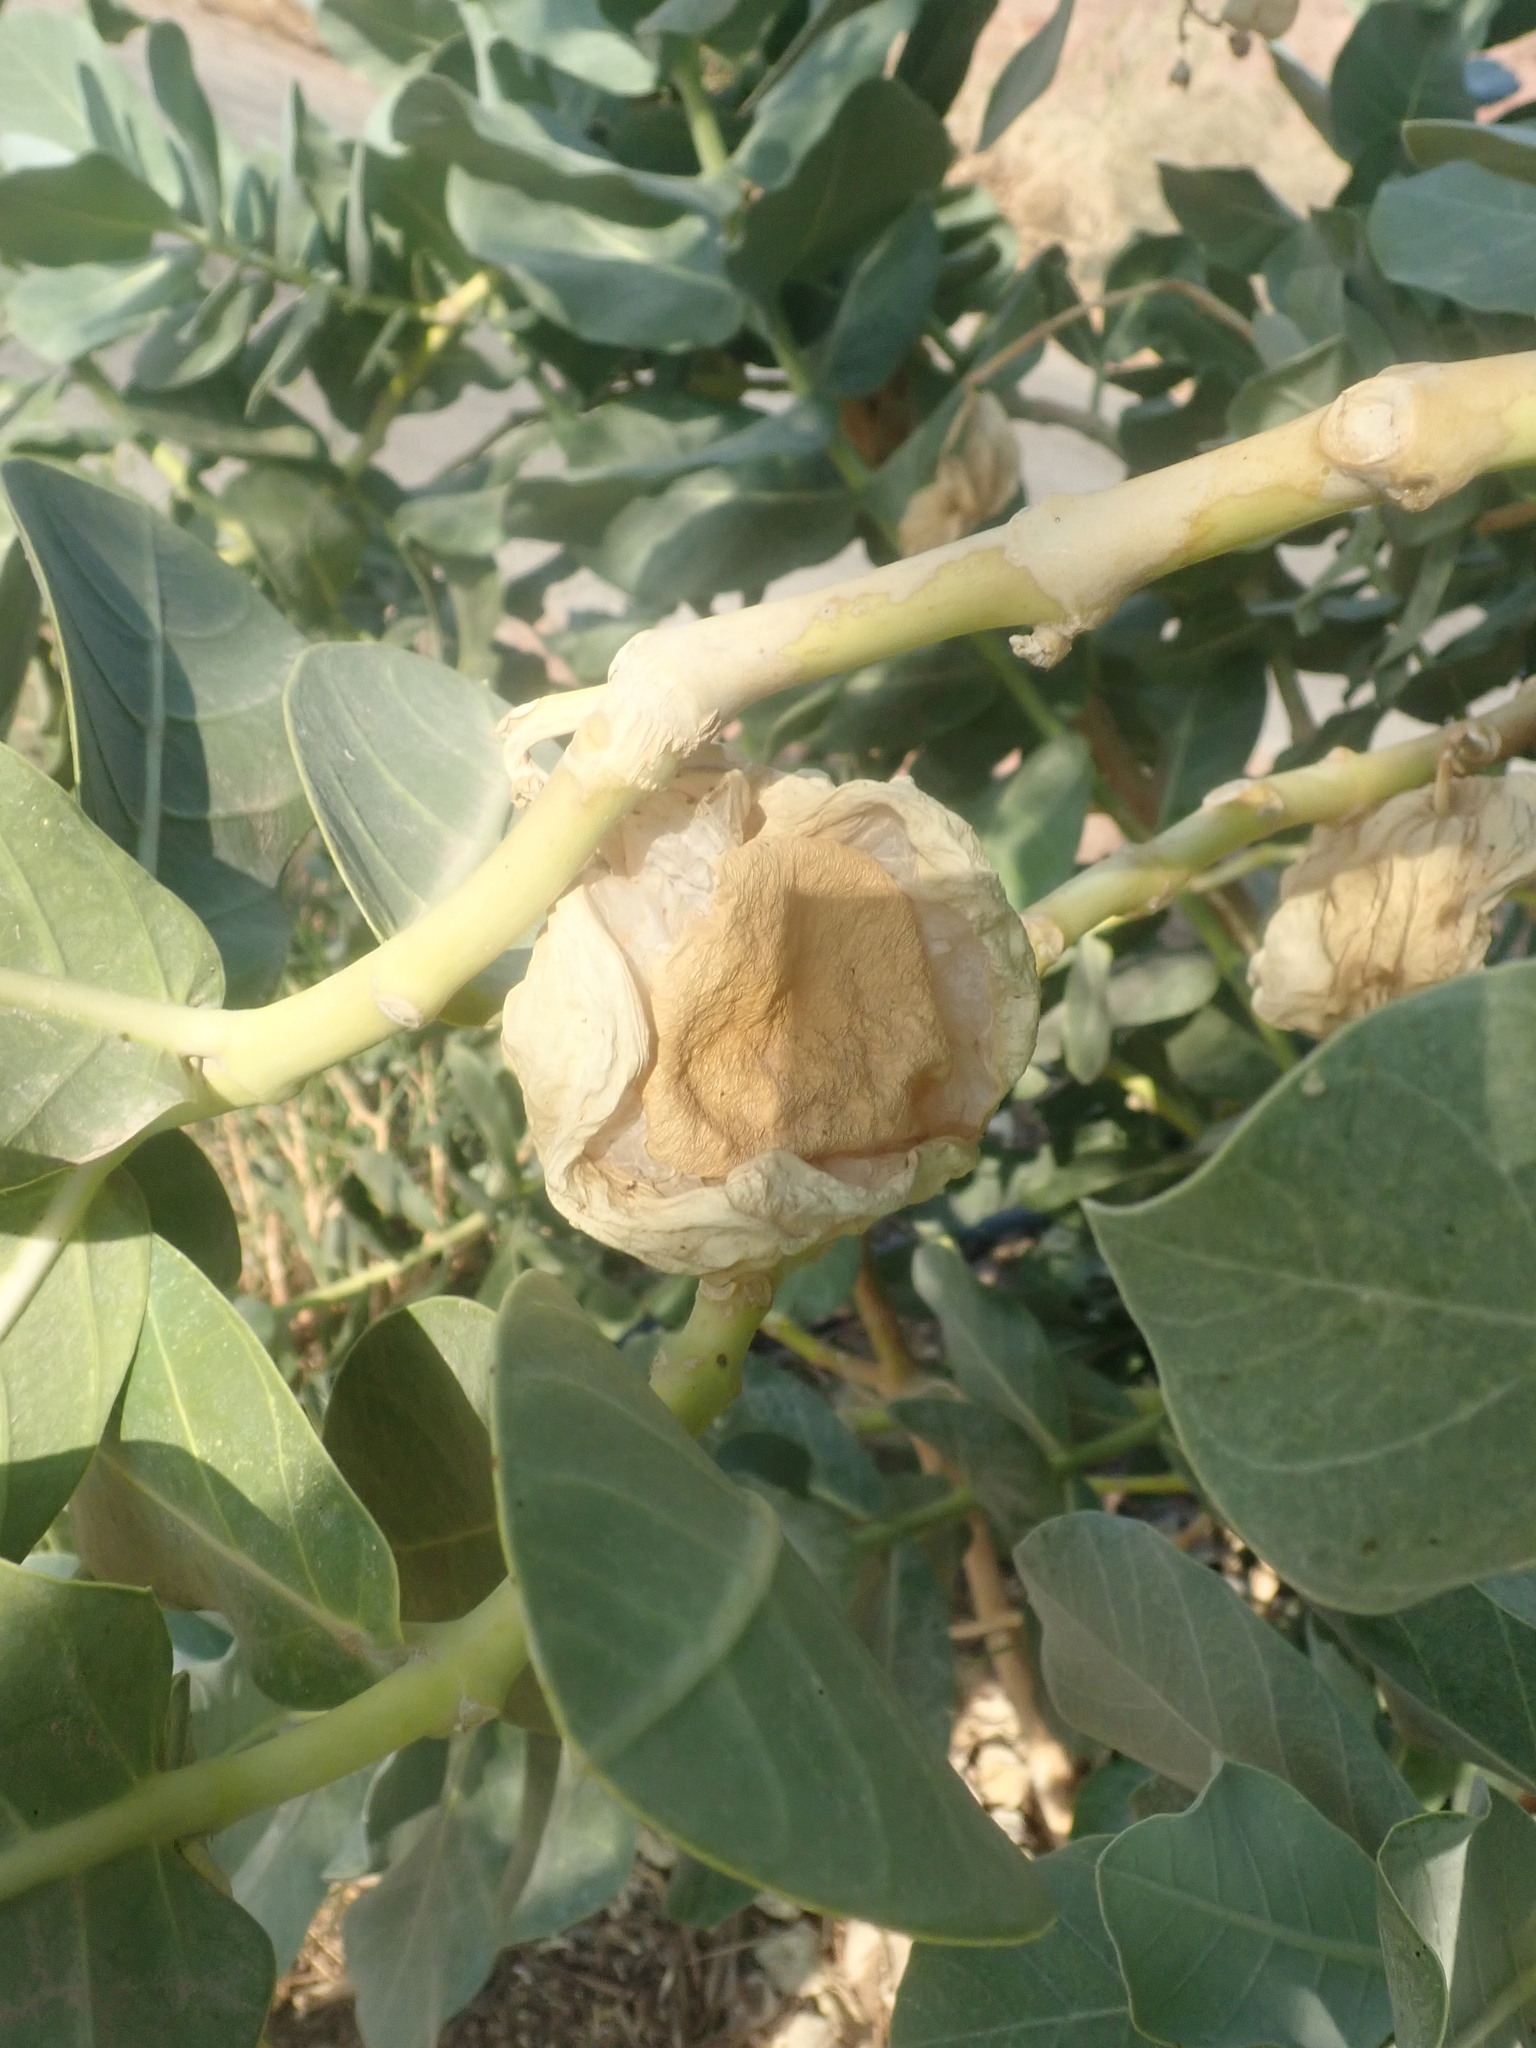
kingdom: Plantae
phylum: Tracheophyta
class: Magnoliopsida
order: Gentianales
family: Apocynaceae
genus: Calotropis
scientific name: Calotropis procera
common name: Roostertree
